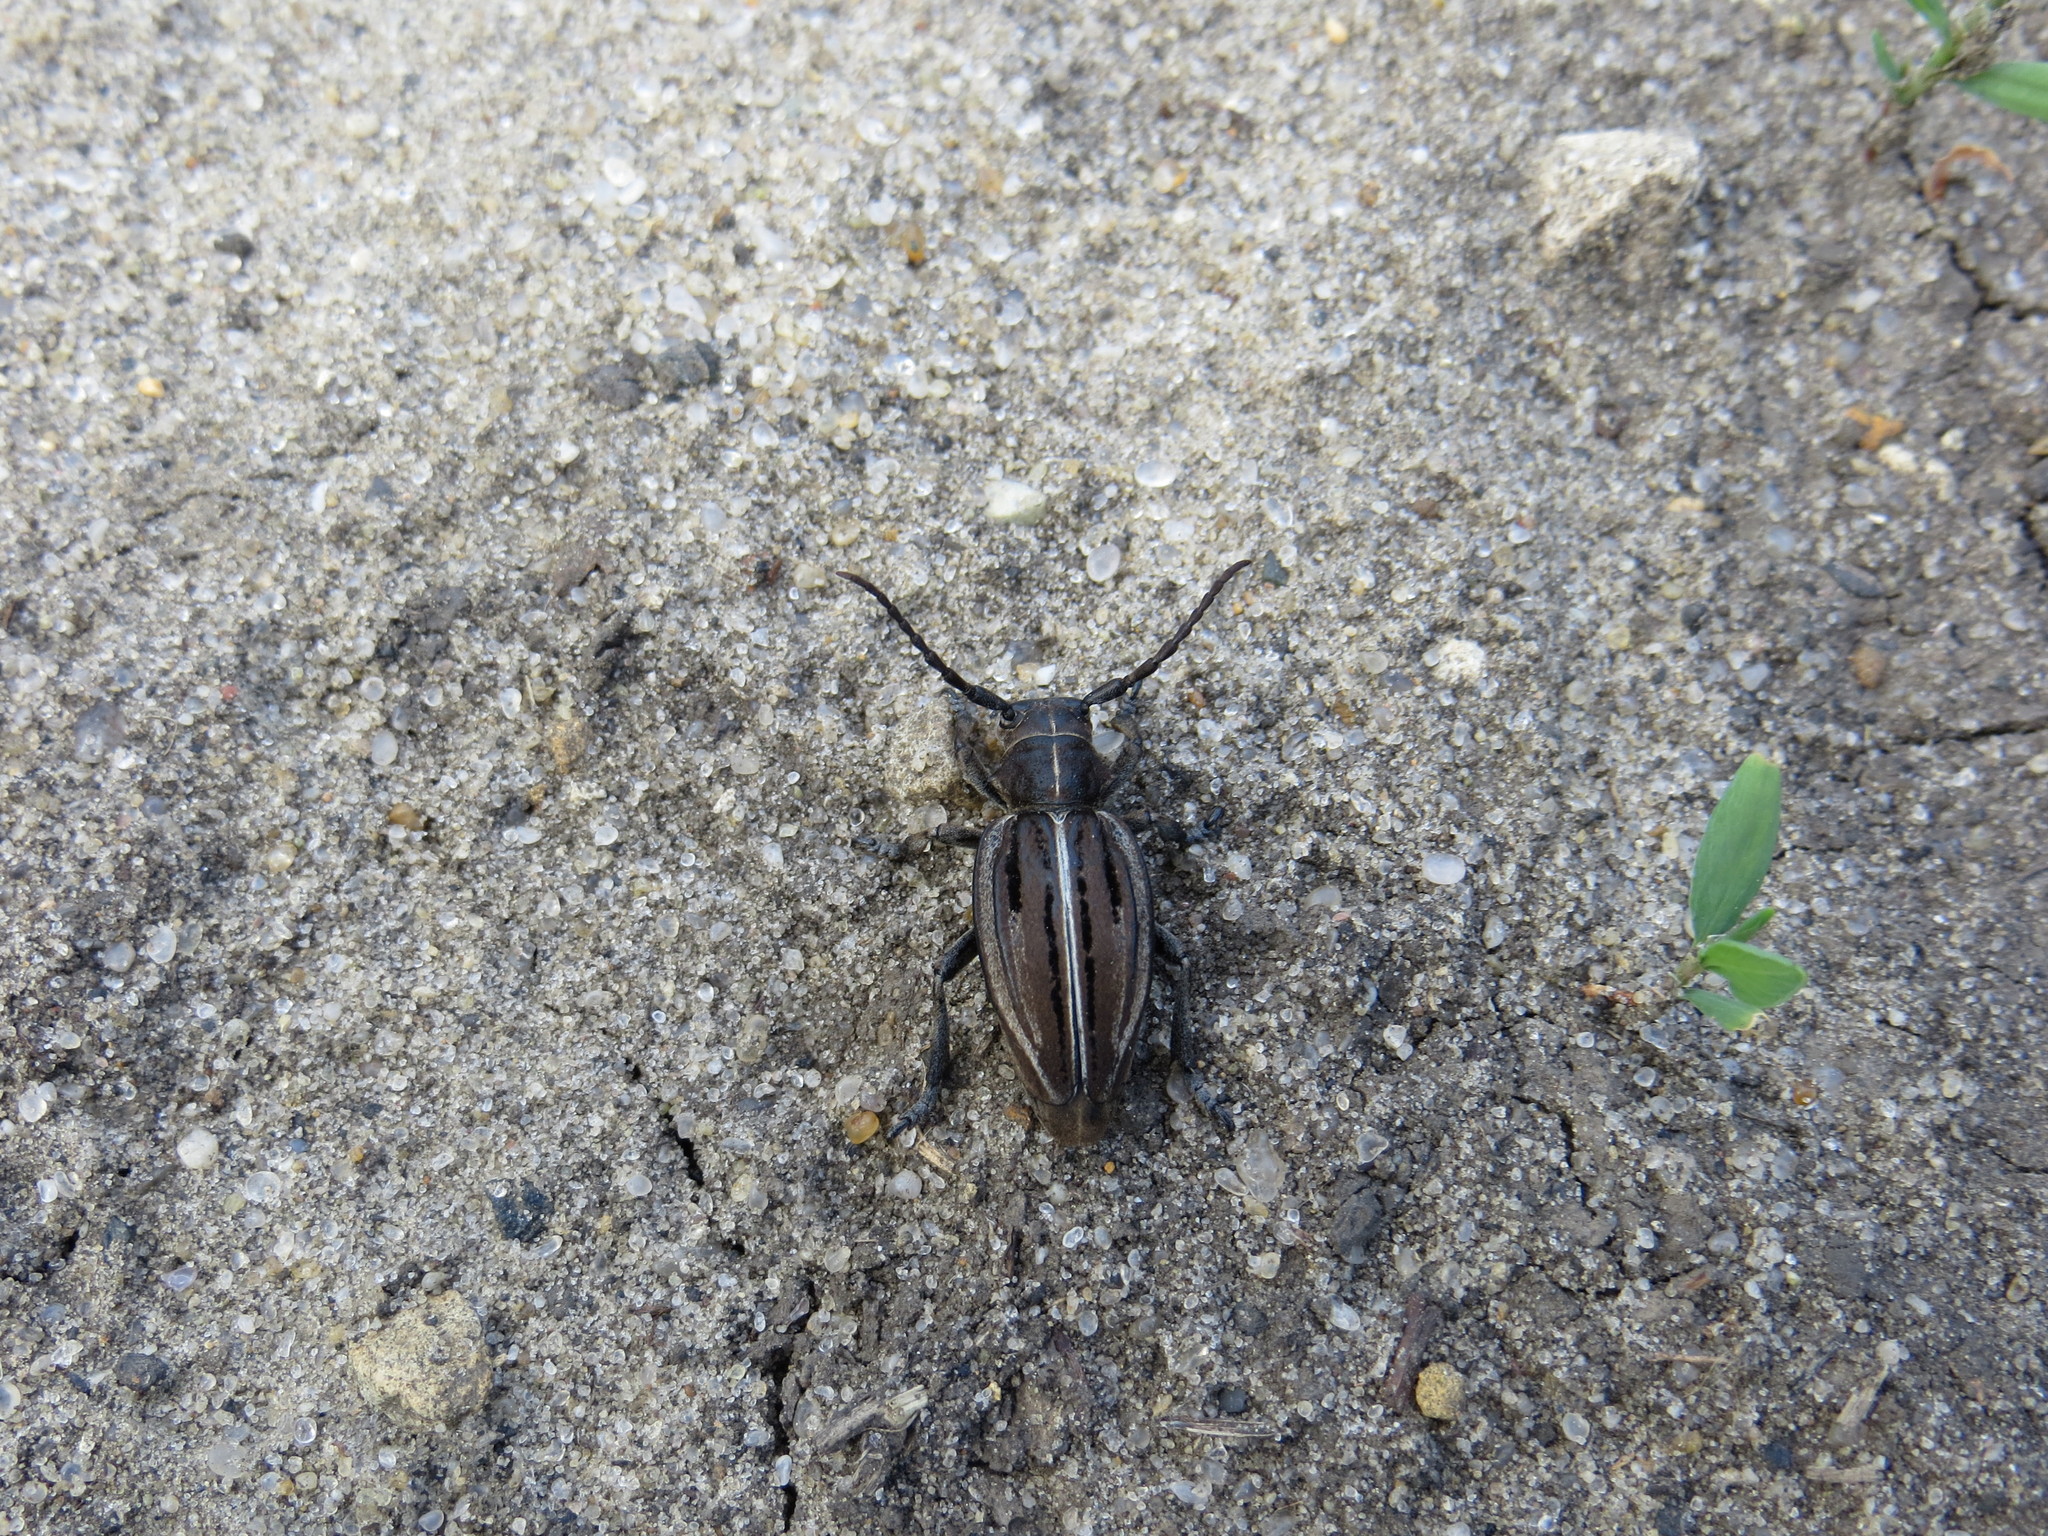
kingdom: Animalia
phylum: Arthropoda
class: Insecta
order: Coleoptera
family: Cerambycidae
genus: Dorcadion
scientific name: Dorcadion holosericeum
